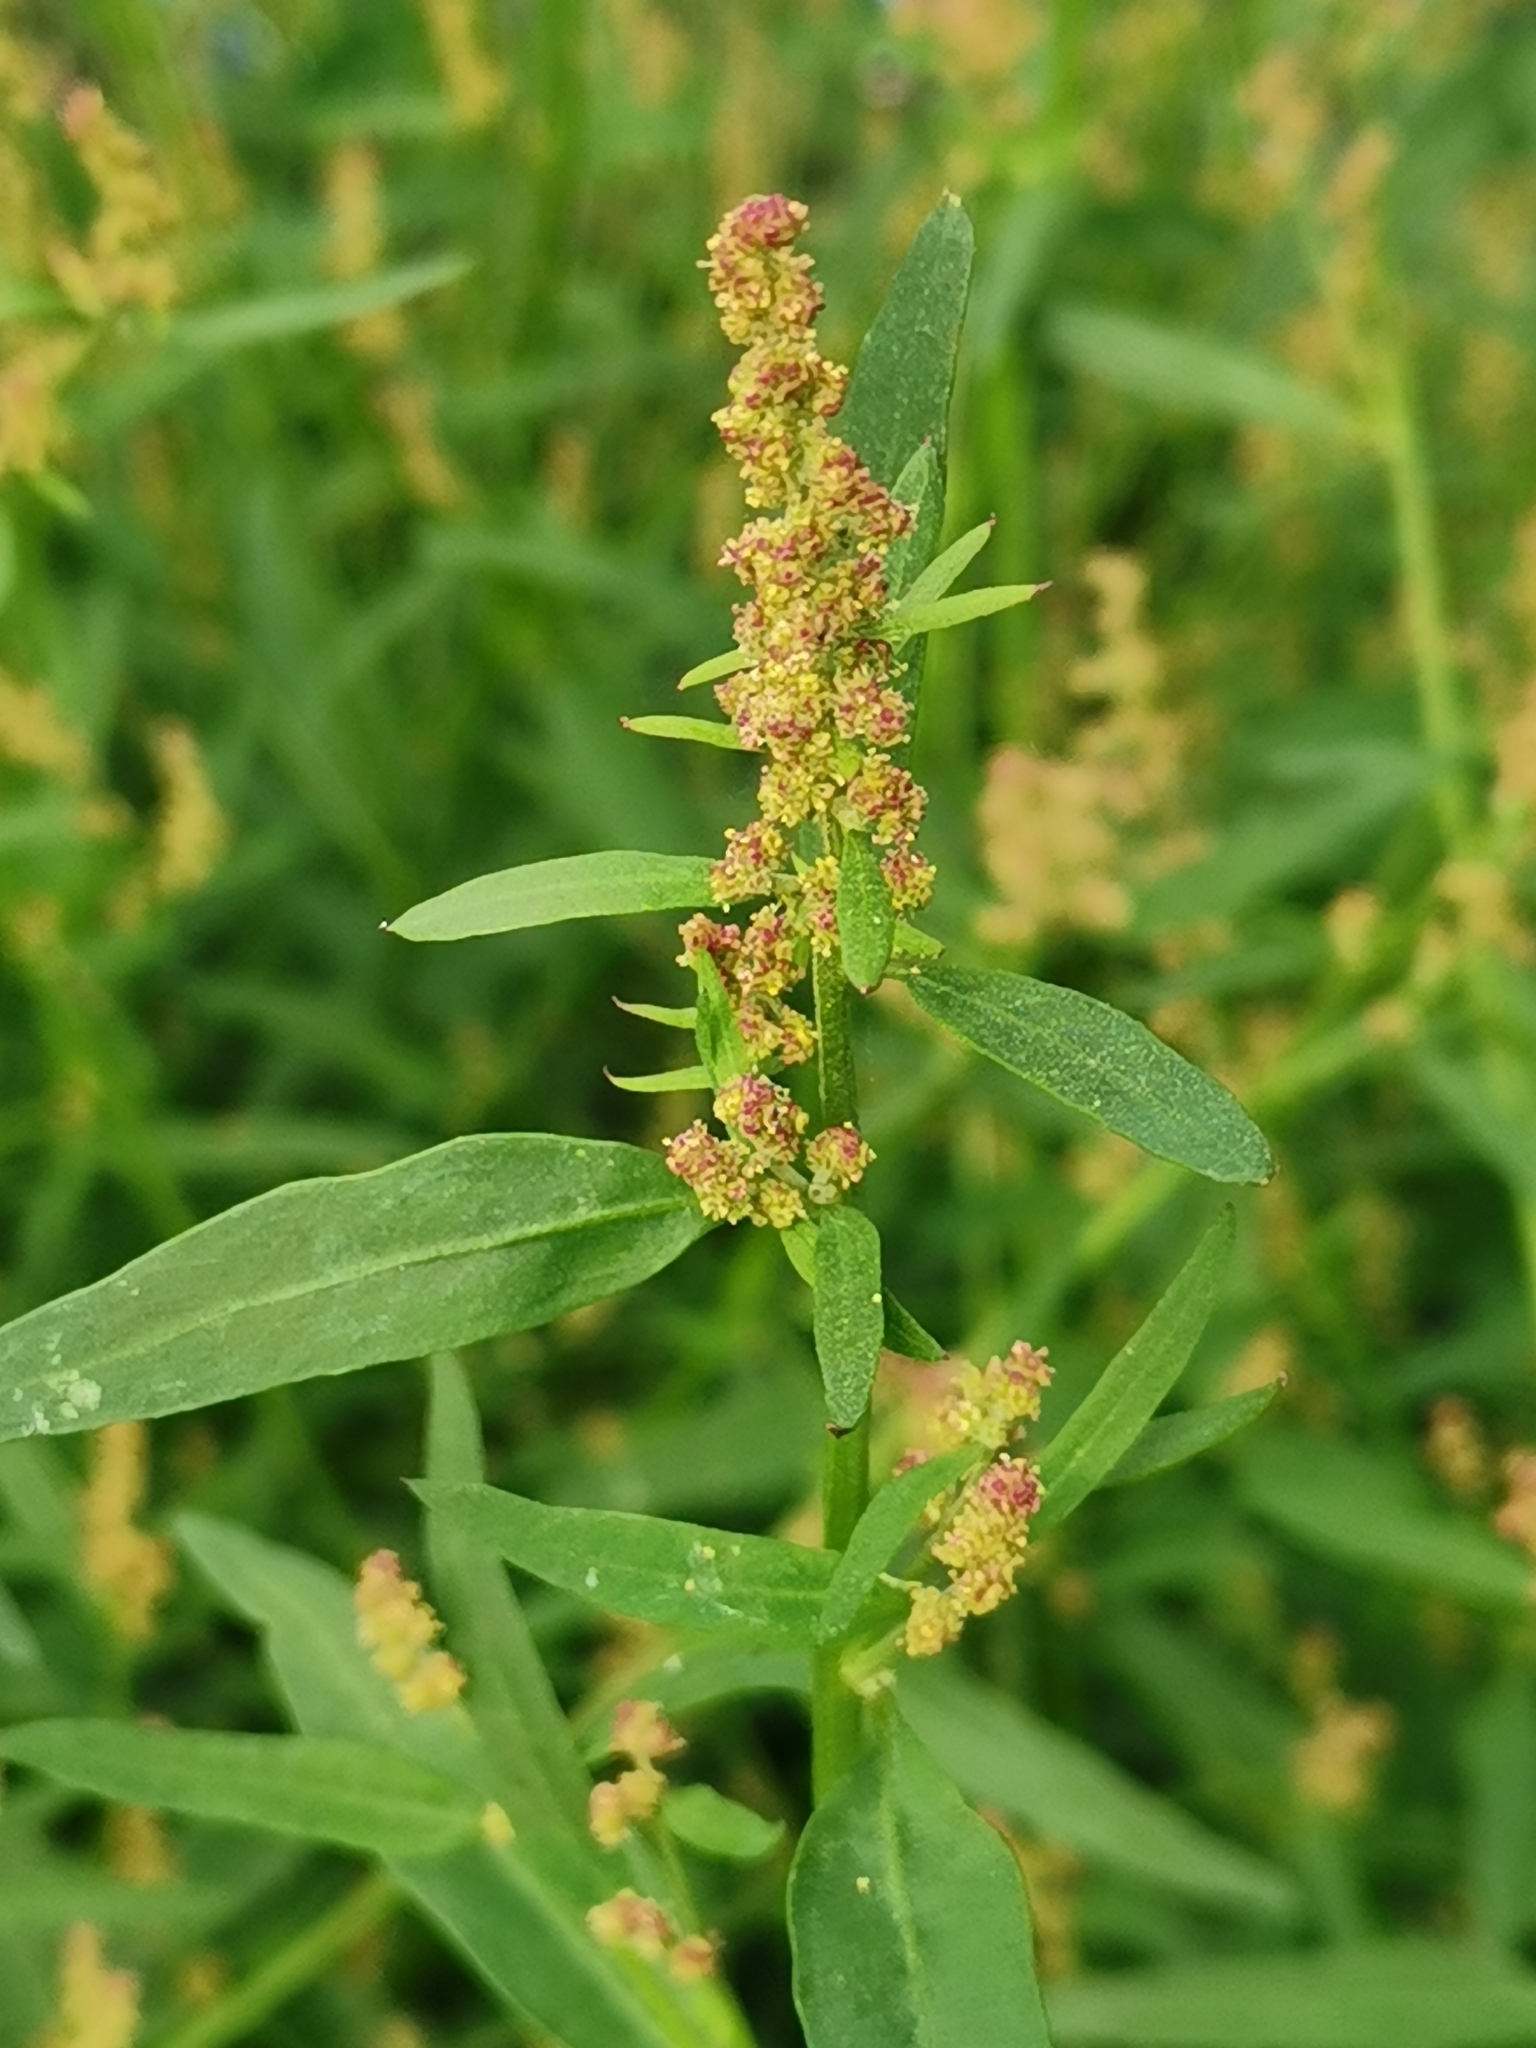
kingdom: Plantae
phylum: Tracheophyta
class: Magnoliopsida
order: Caryophyllales
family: Amaranthaceae
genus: Atriplex
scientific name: Atriplex patula
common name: Common orache
